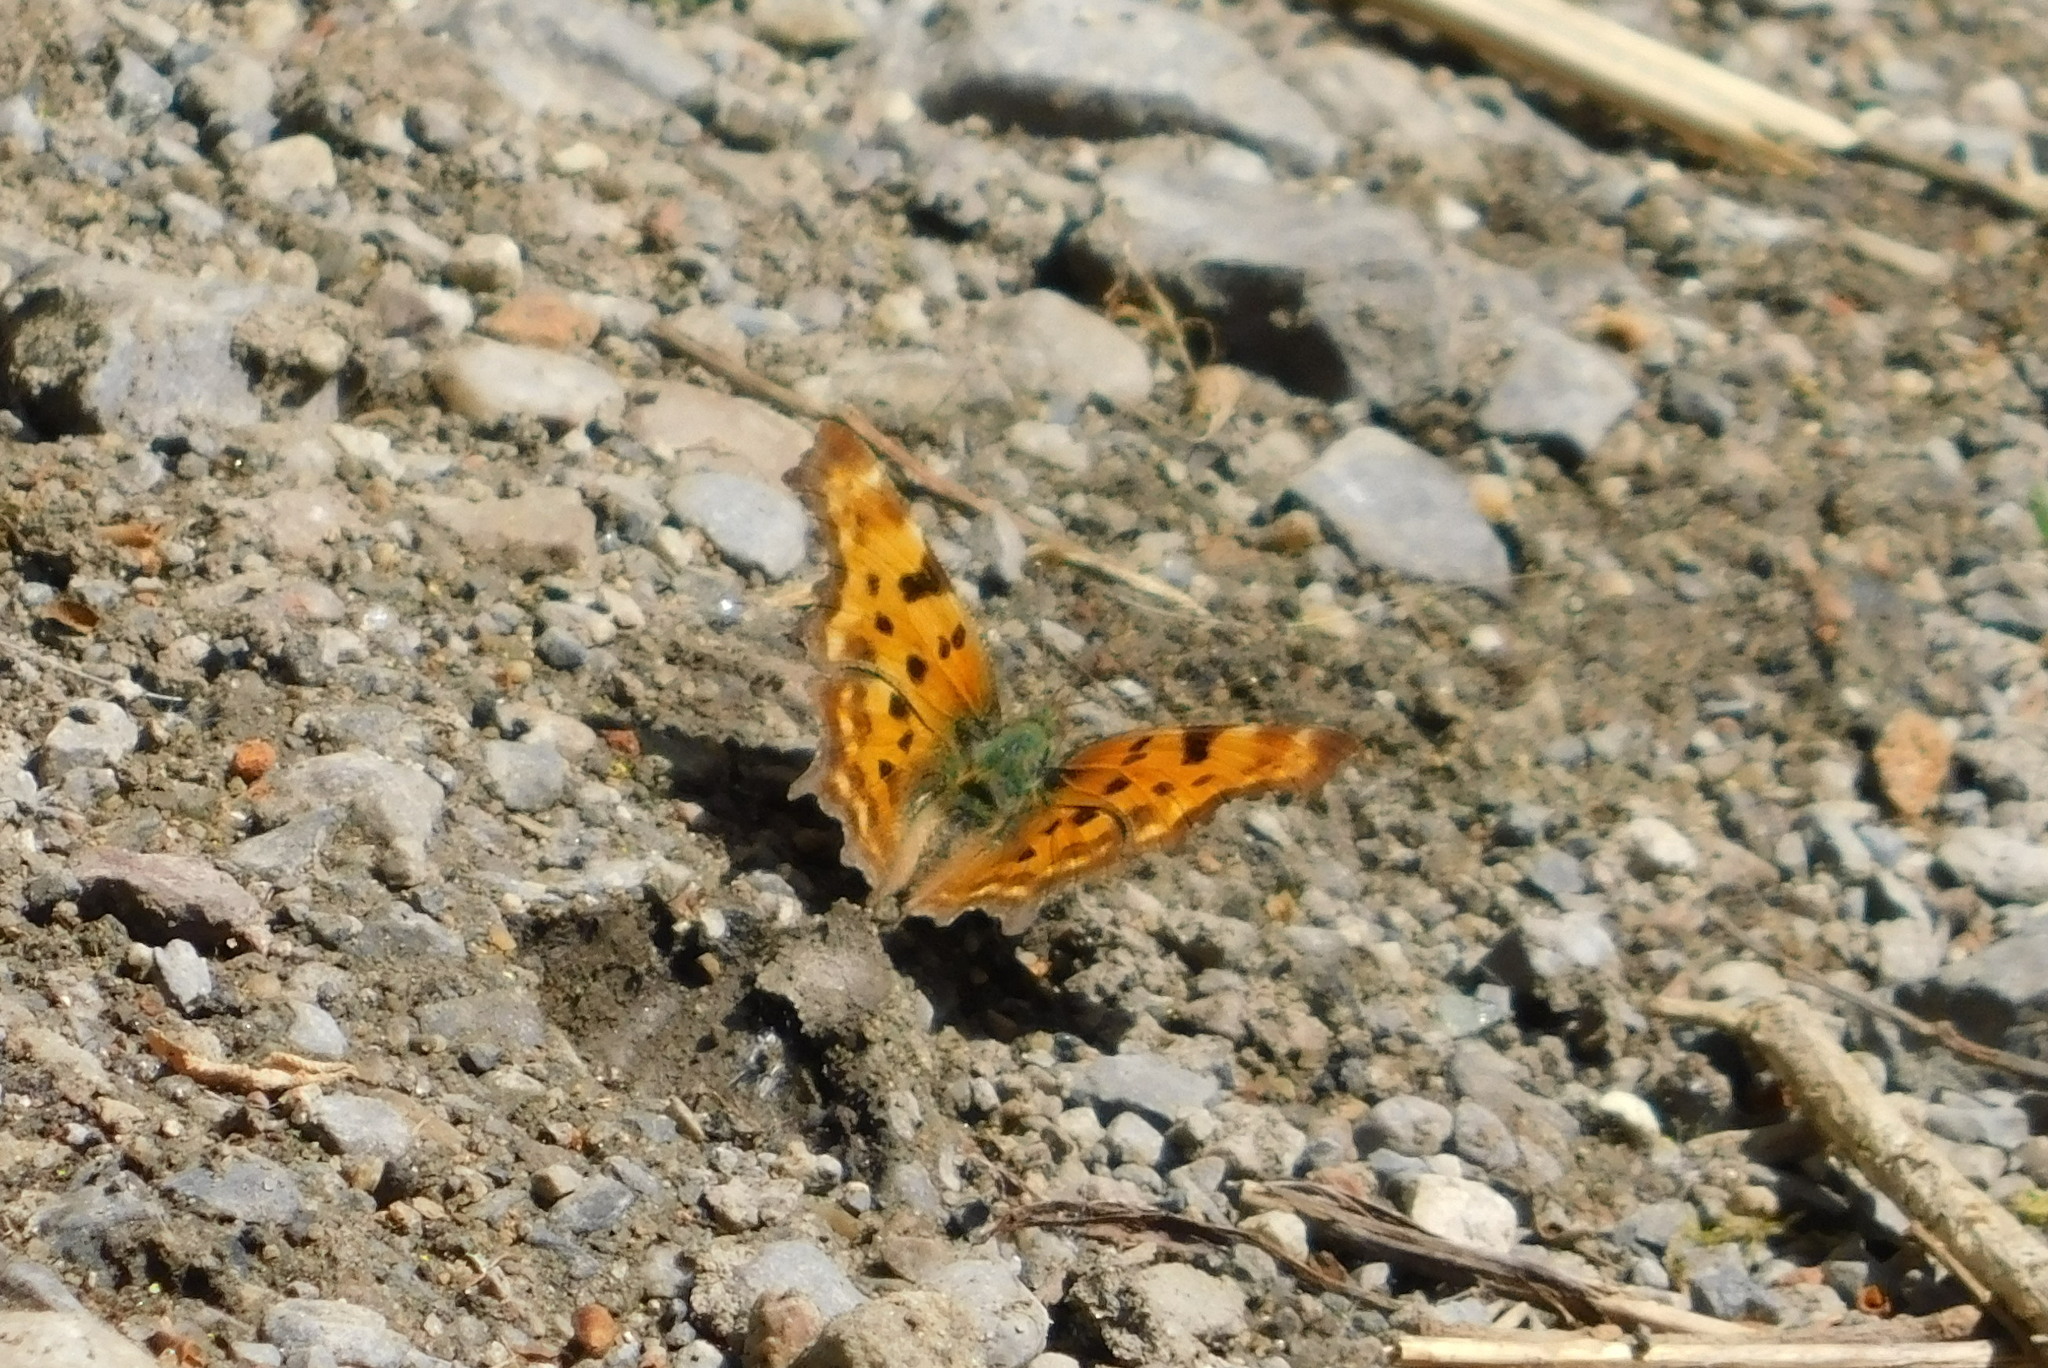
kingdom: Animalia
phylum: Arthropoda
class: Insecta
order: Lepidoptera
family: Nymphalidae
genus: Polygonia
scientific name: Polygonia c-album
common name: Comma
